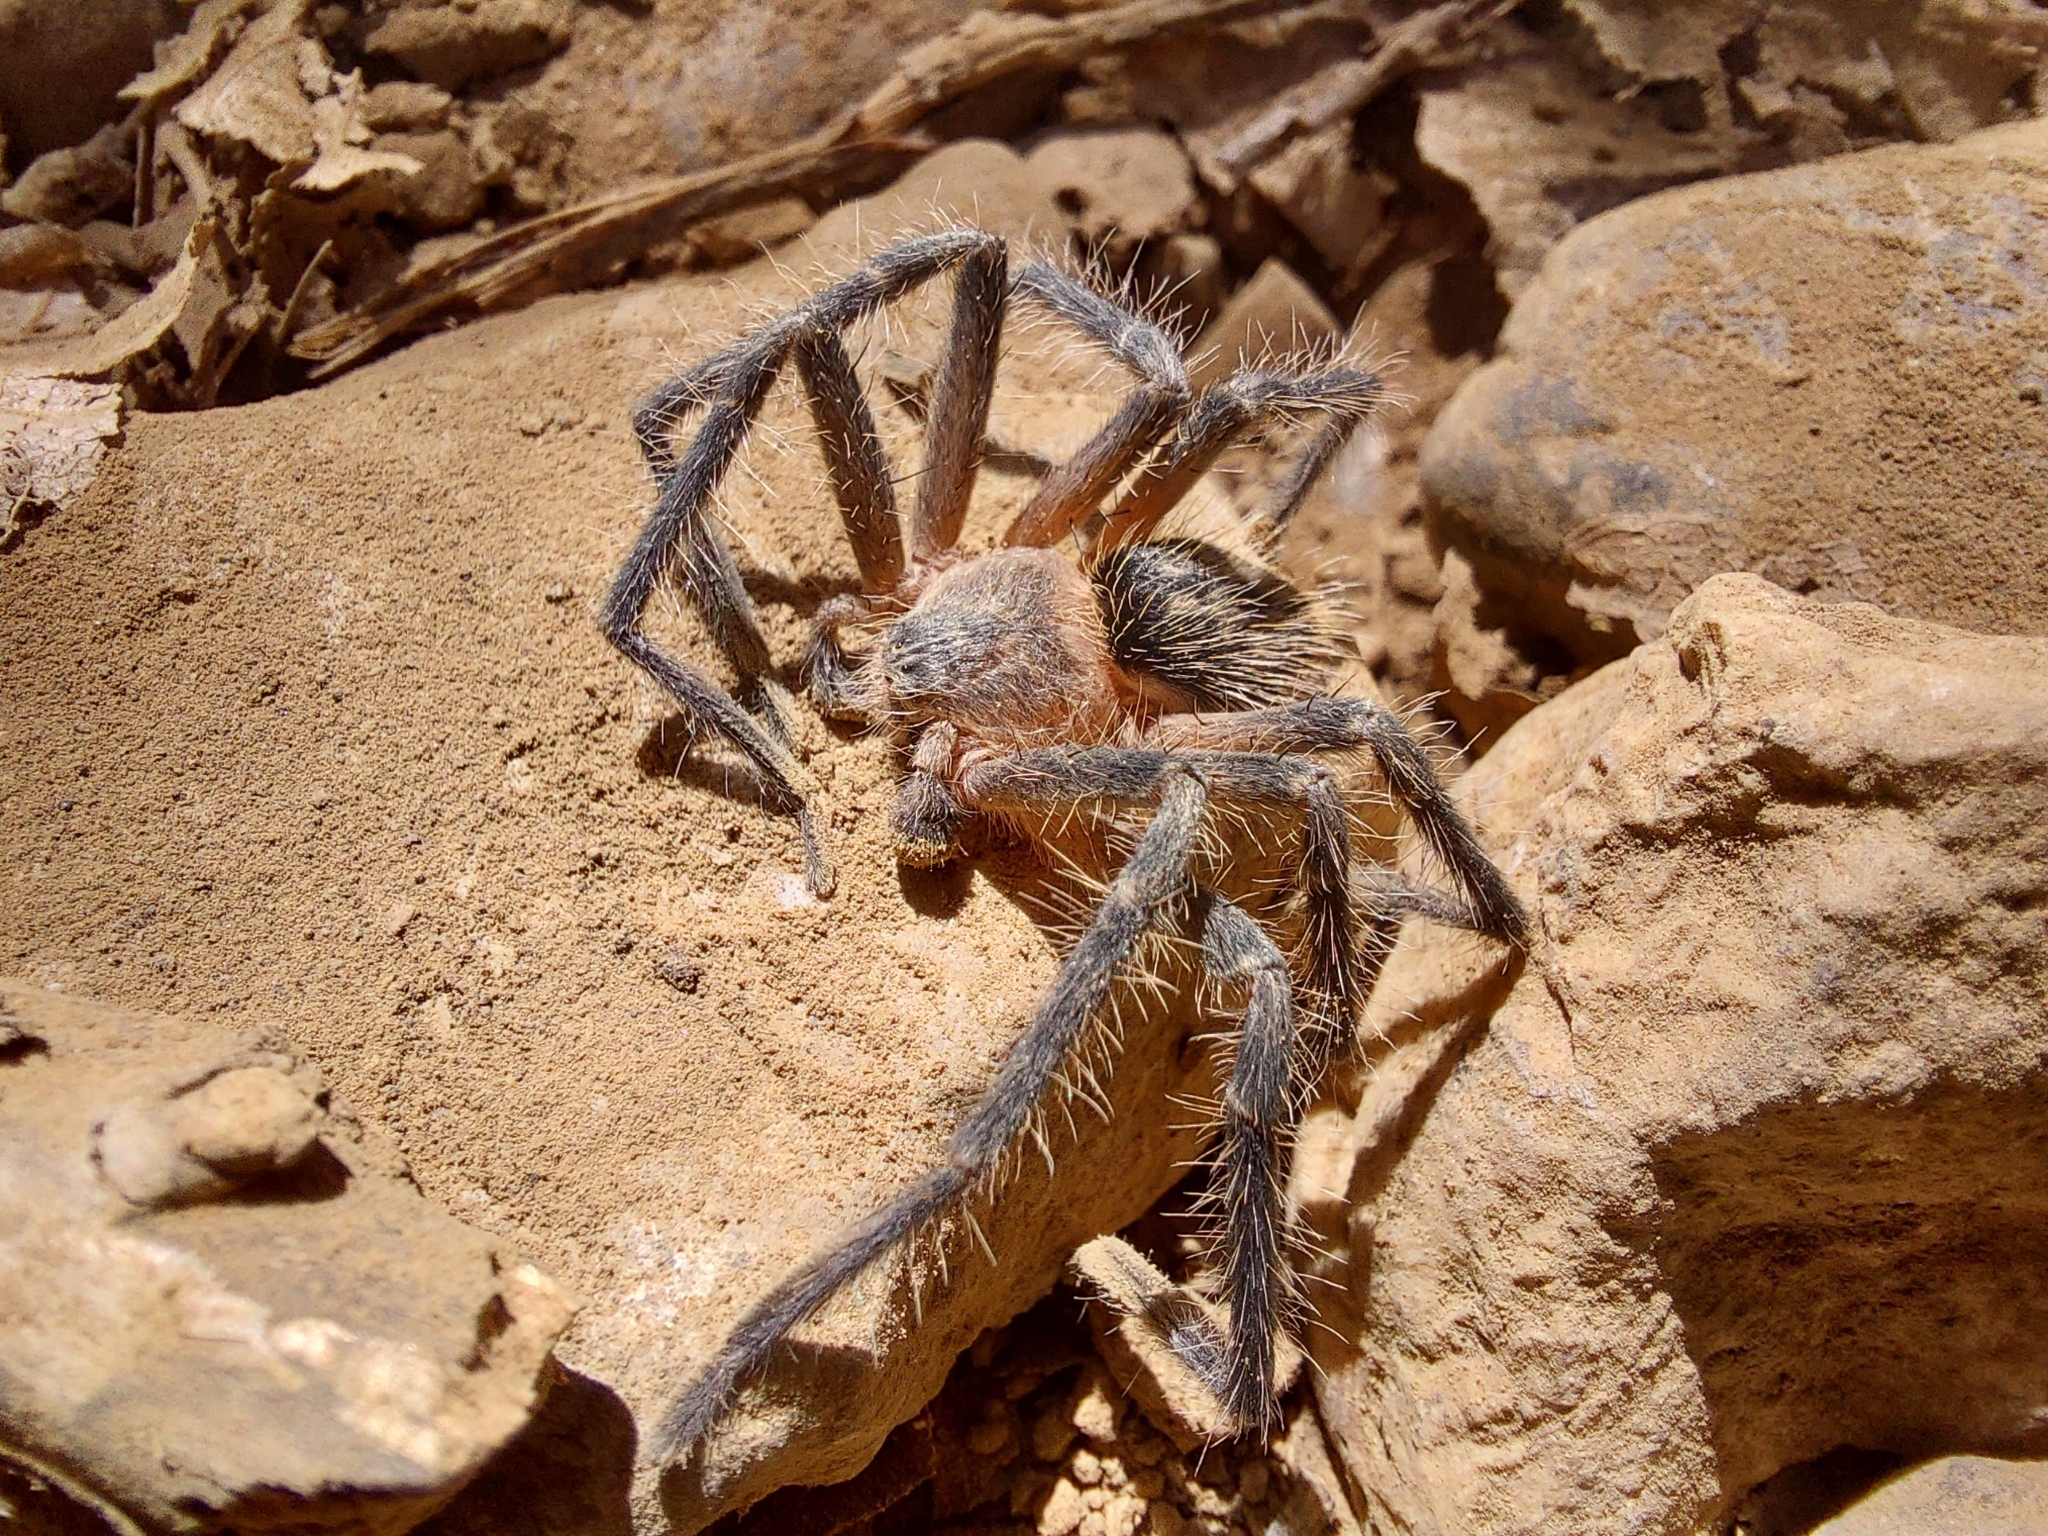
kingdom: Animalia
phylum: Arthropoda
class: Arachnida
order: Araneae
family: Sparassidae
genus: Polybetes
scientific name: Polybetes martius
